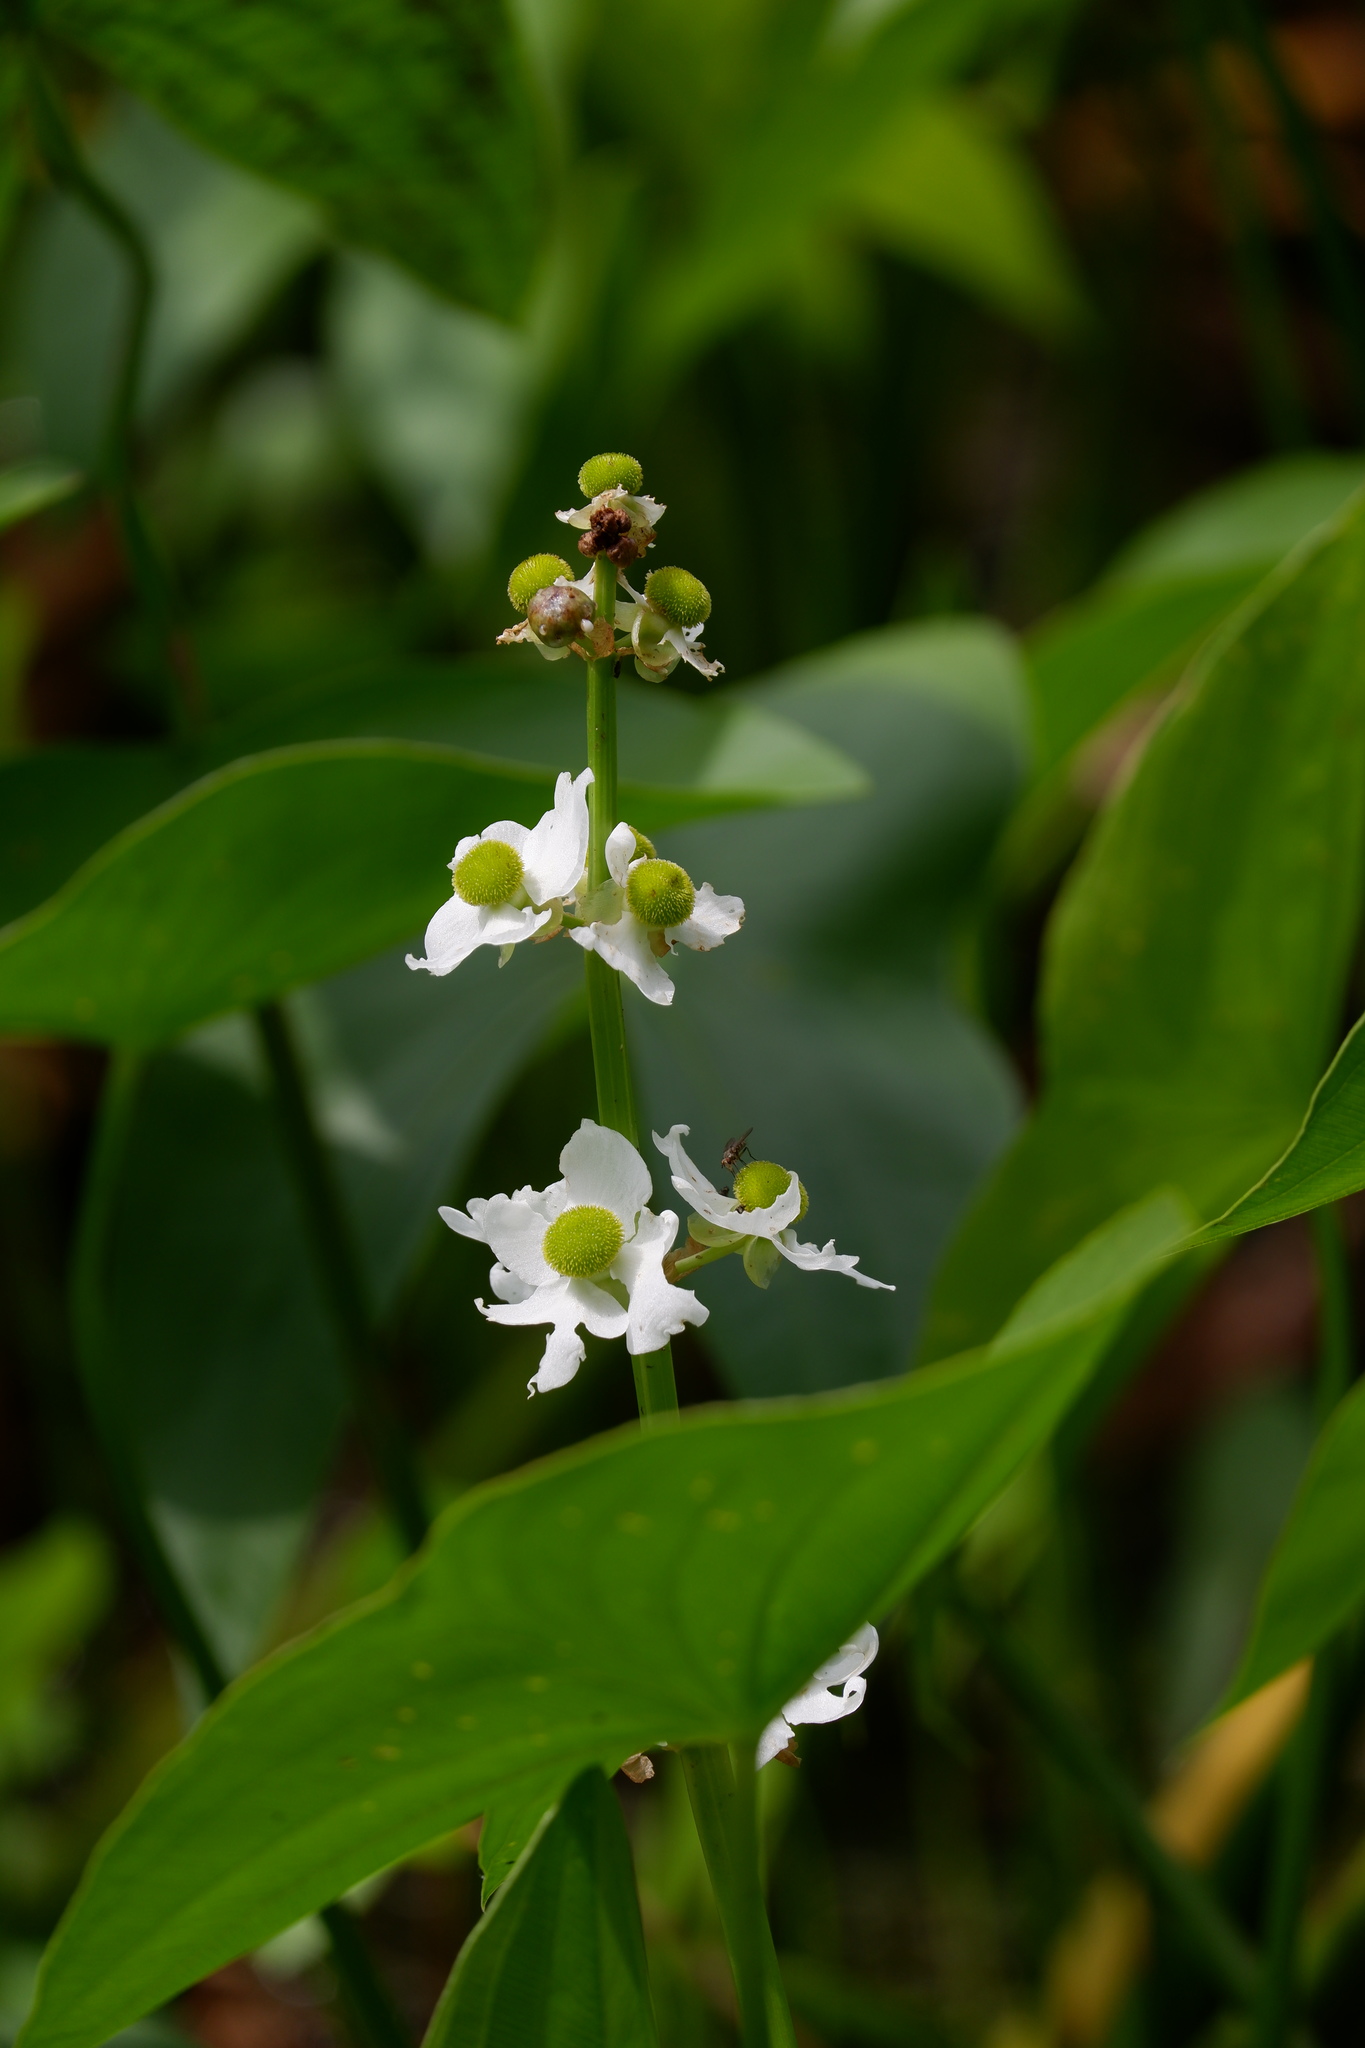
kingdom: Plantae
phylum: Tracheophyta
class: Liliopsida
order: Alismatales
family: Alismataceae
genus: Sagittaria
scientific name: Sagittaria latifolia
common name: Duck-potato
